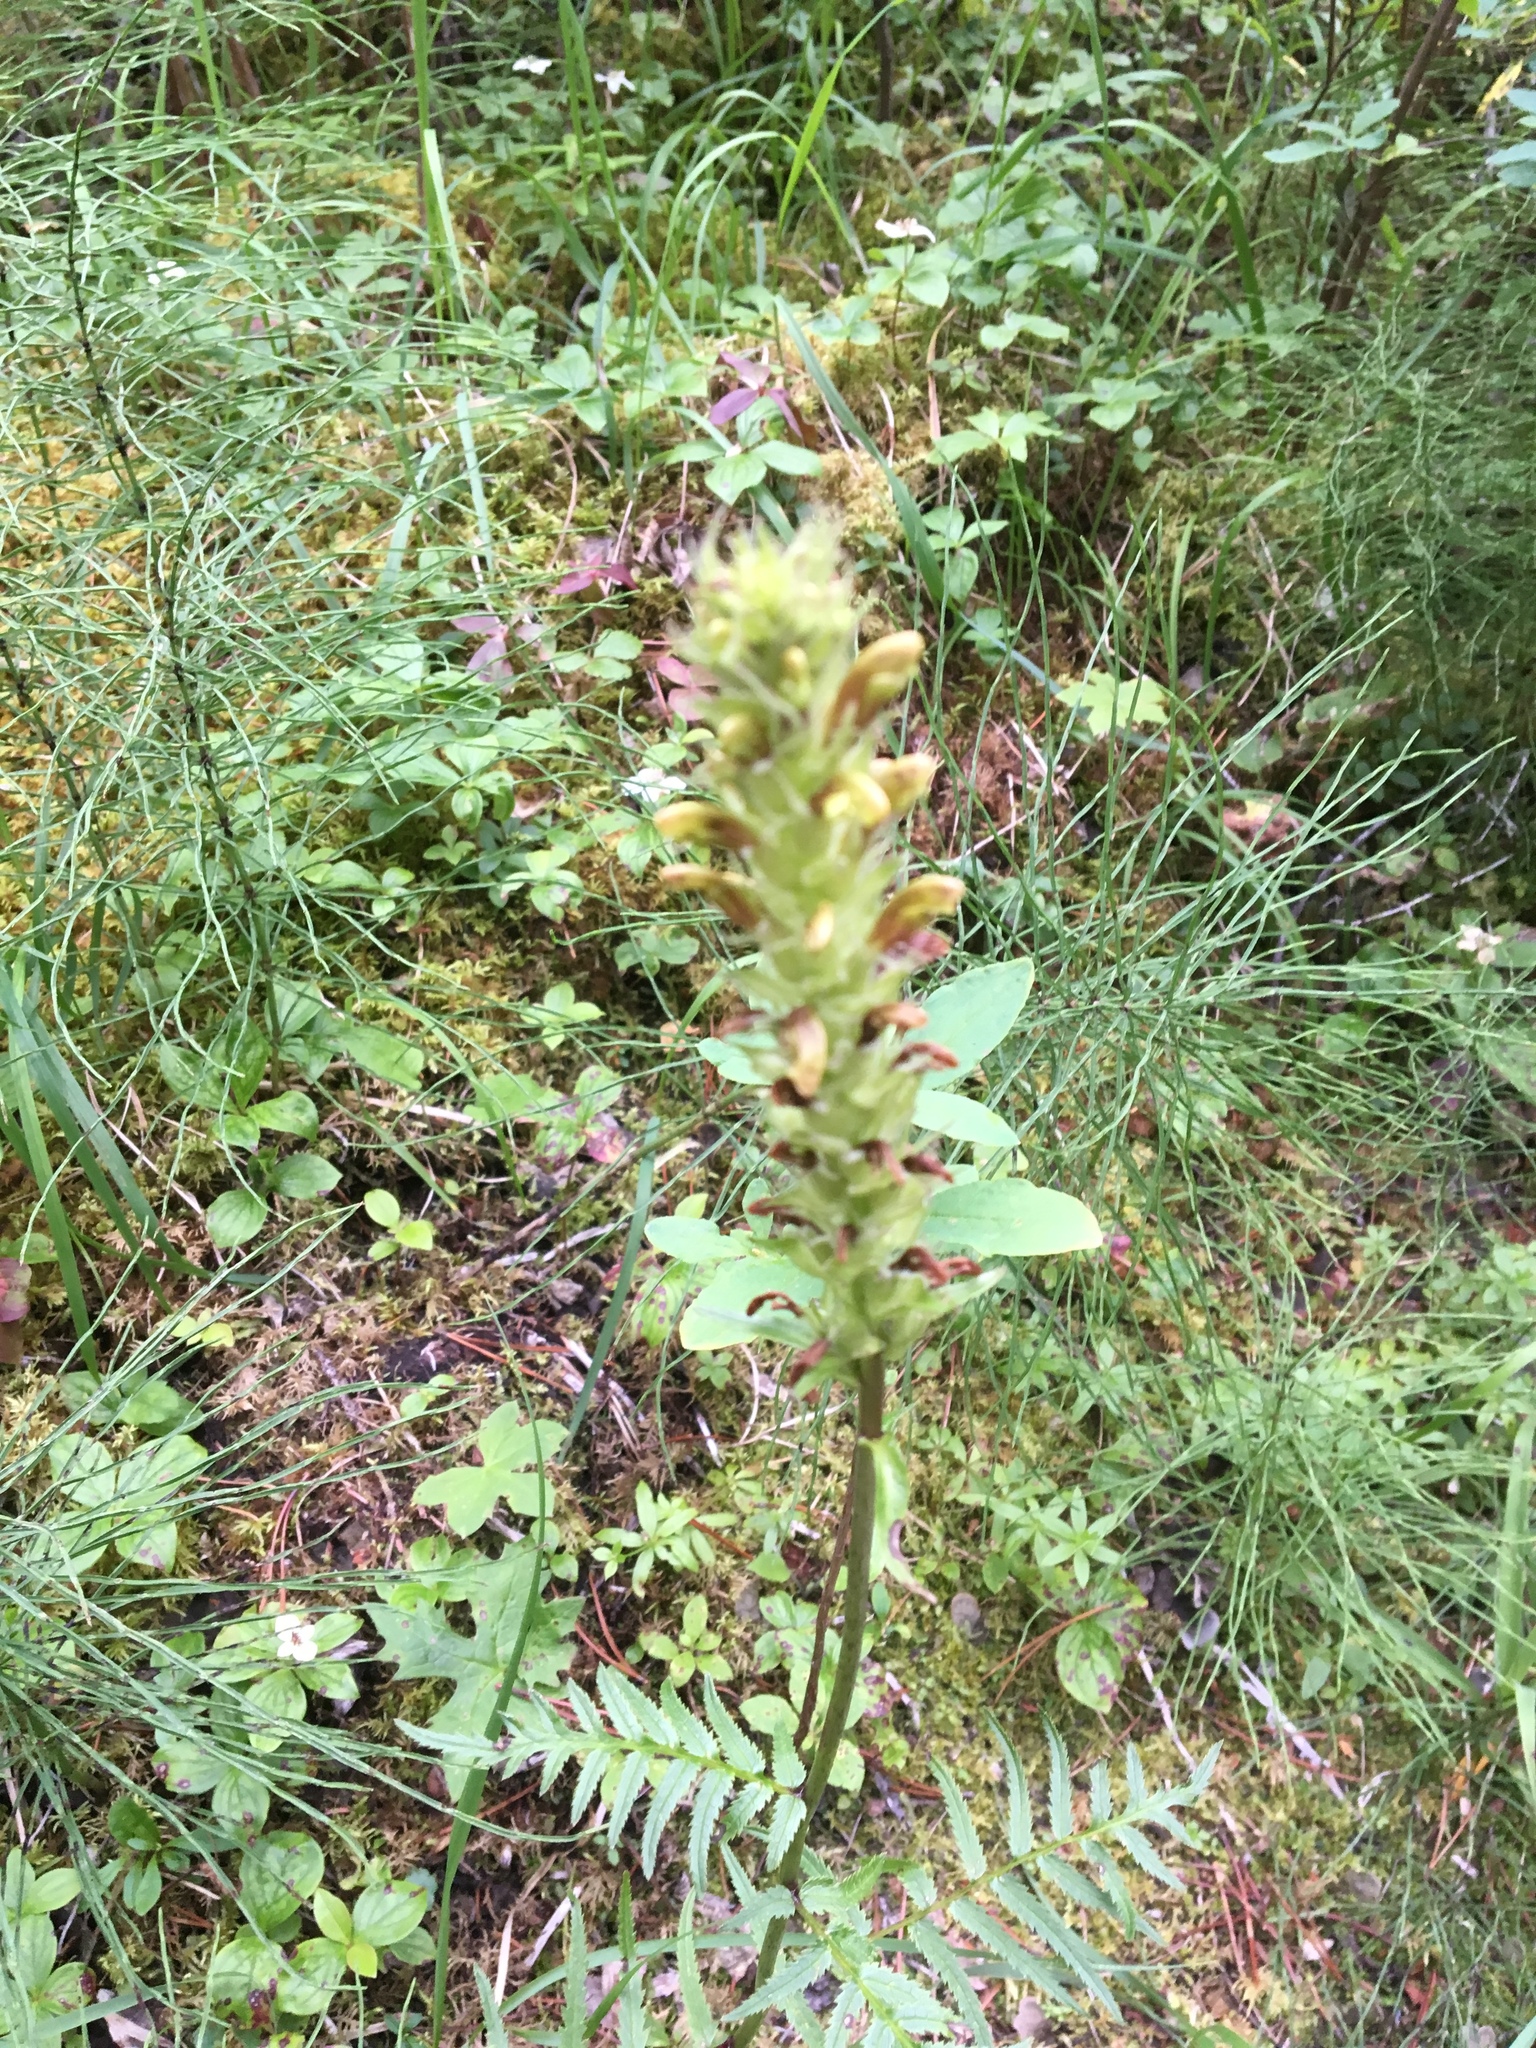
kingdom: Plantae
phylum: Tracheophyta
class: Magnoliopsida
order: Lamiales
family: Orobanchaceae
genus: Pedicularis
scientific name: Pedicularis bracteosa
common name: Bracted lousewort
